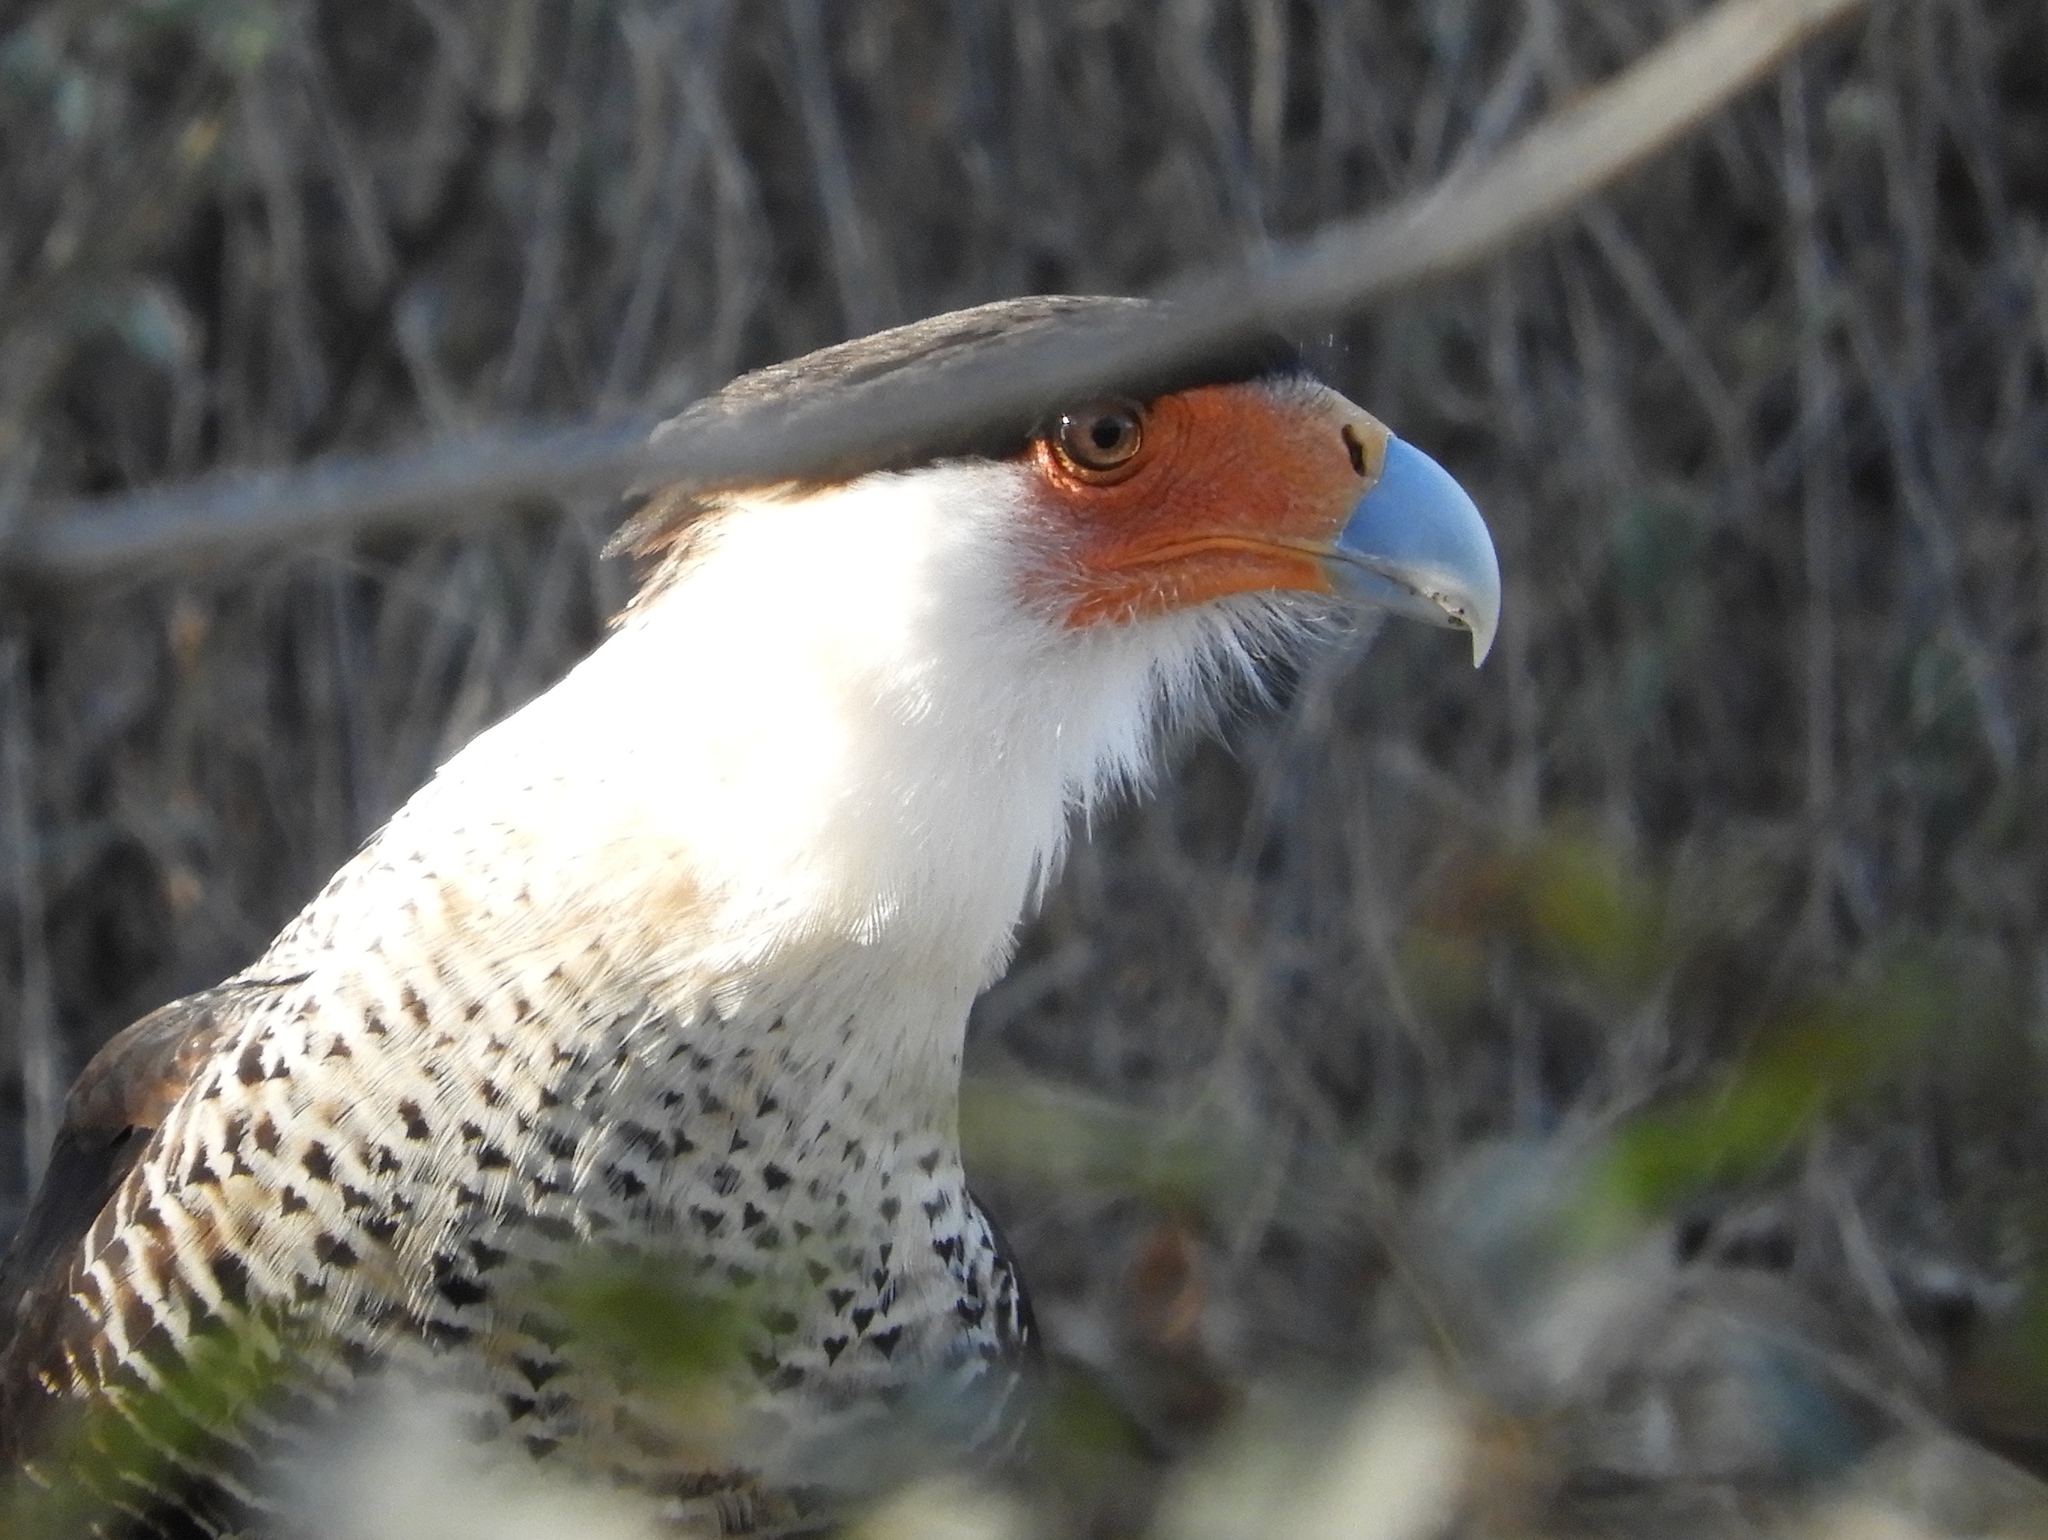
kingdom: Animalia
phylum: Chordata
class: Aves
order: Falconiformes
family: Falconidae
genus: Caracara
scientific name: Caracara plancus
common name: Southern caracara
